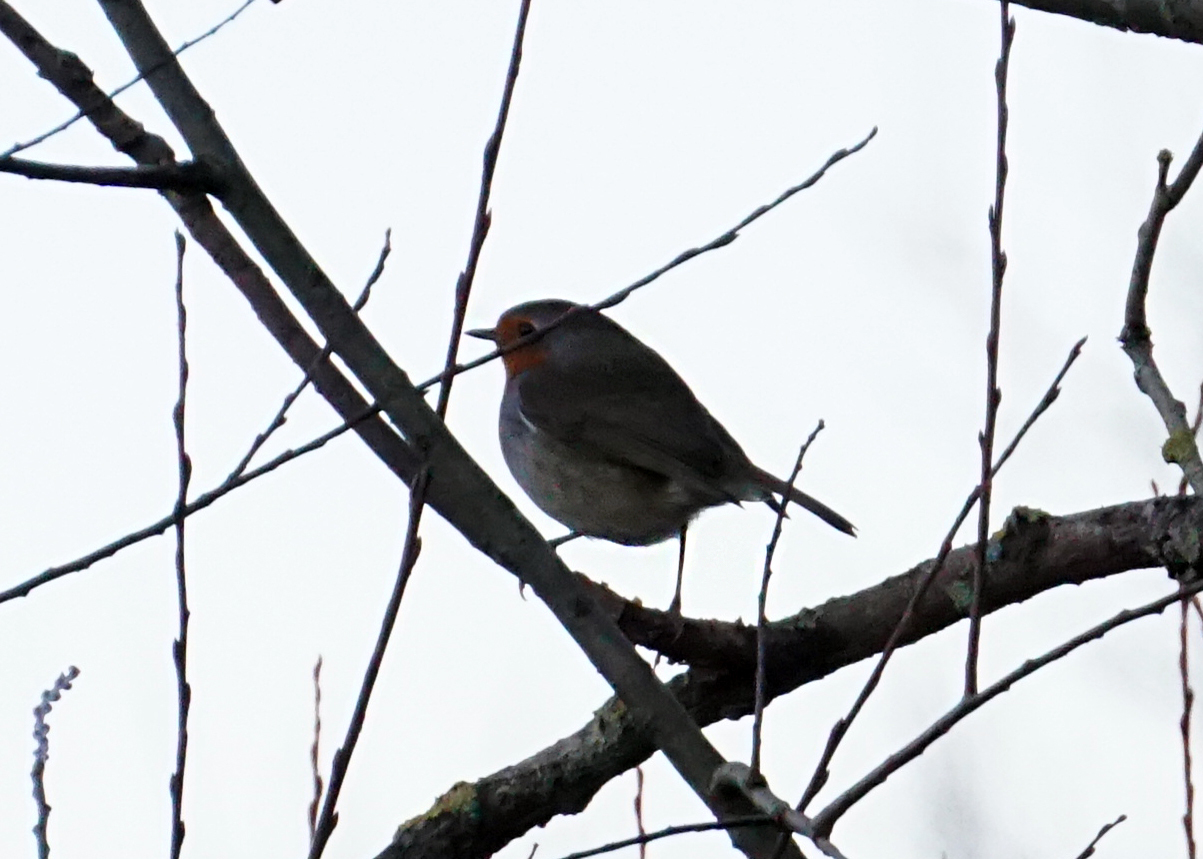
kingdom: Animalia
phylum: Chordata
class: Aves
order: Passeriformes
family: Muscicapidae
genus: Erithacus
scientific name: Erithacus rubecula
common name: European robin
